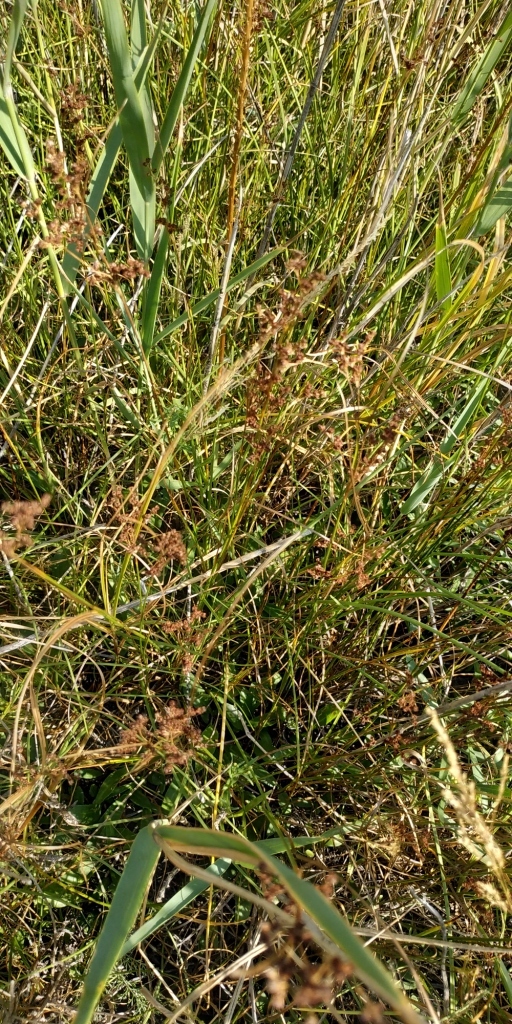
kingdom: Plantae
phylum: Tracheophyta
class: Liliopsida
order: Poales
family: Juncaceae
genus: Juncus
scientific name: Juncus compressus
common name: Round-fruited rush
